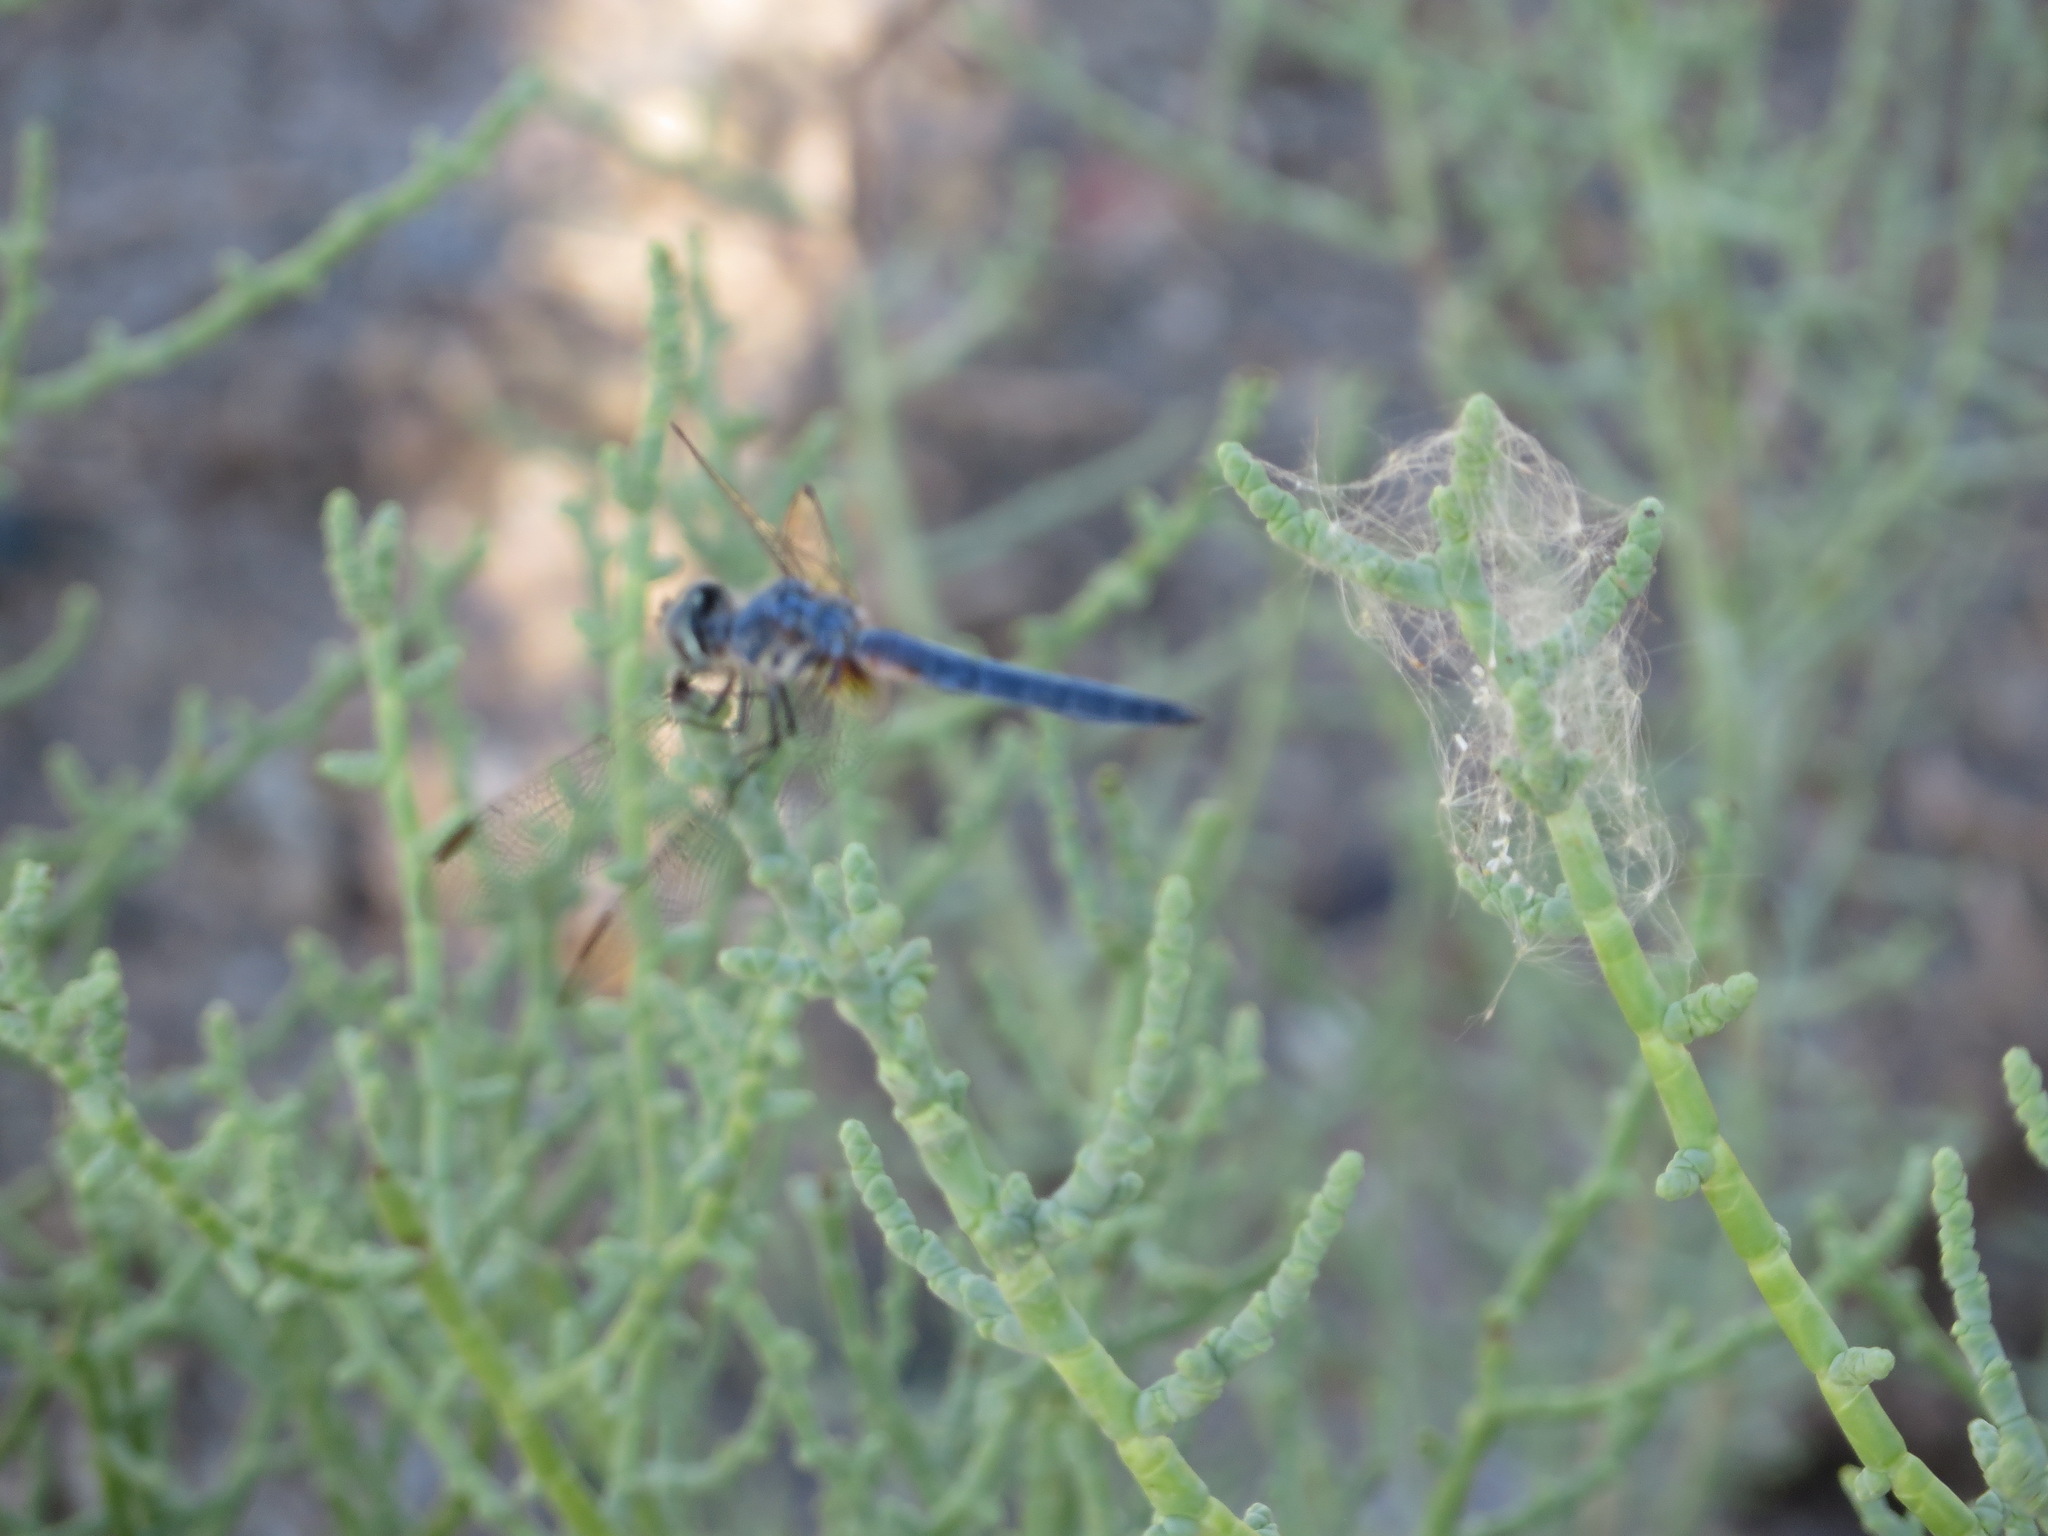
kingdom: Animalia
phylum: Arthropoda
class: Insecta
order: Odonata
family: Libellulidae
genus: Pachydiplax
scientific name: Pachydiplax longipennis
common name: Blue dasher
